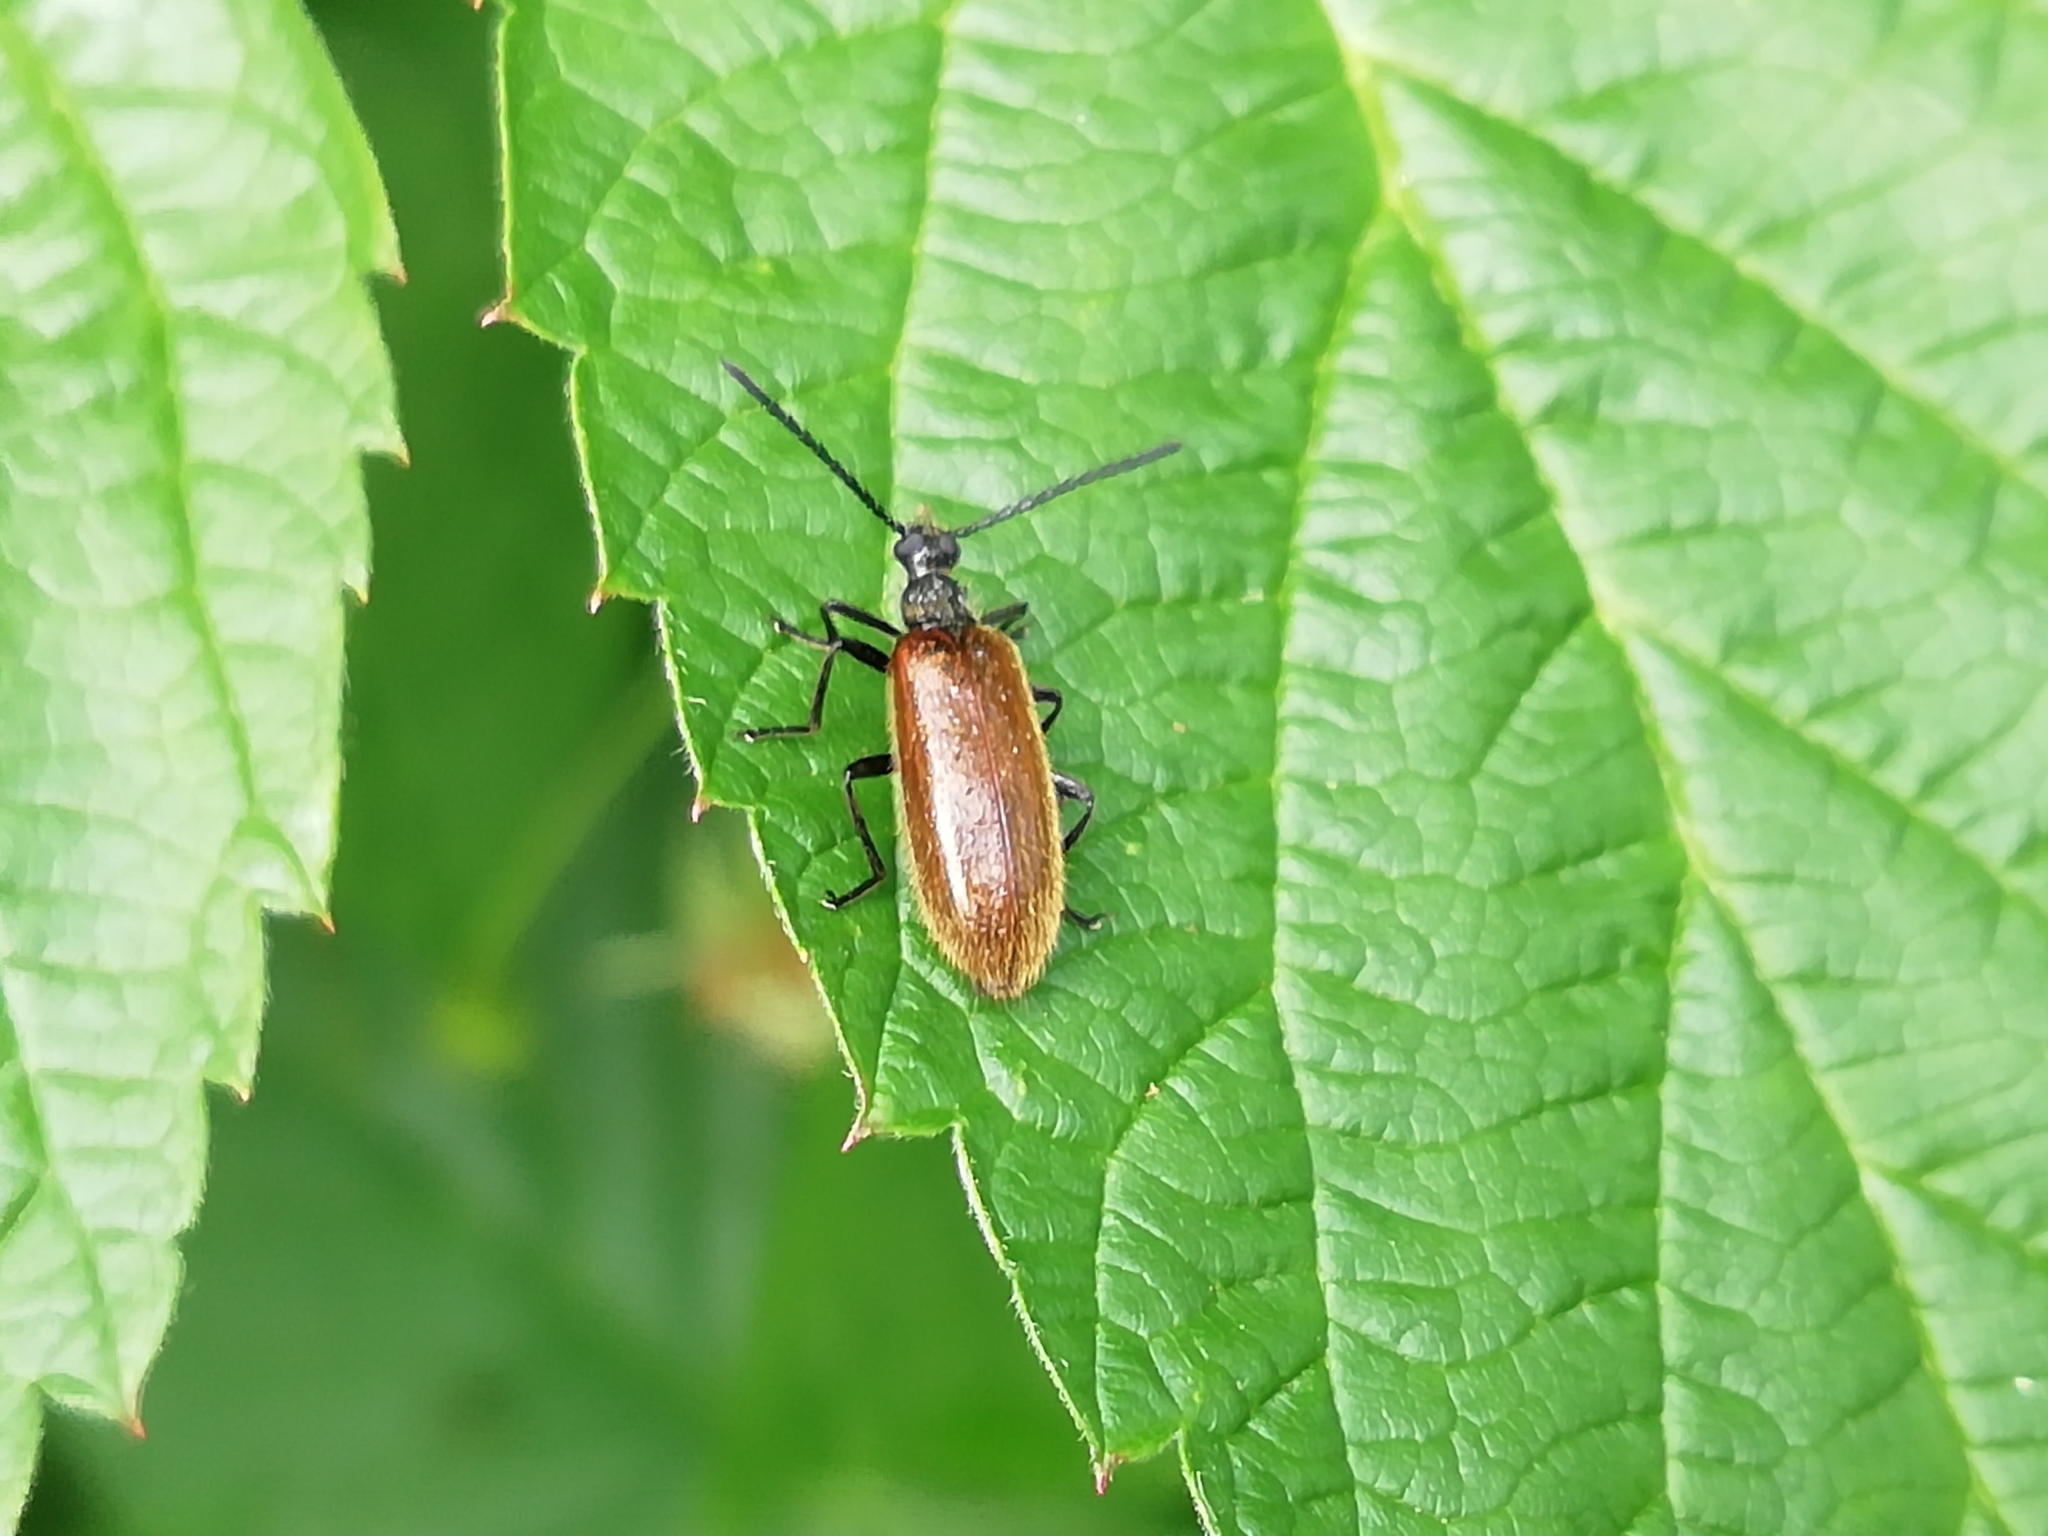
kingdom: Animalia
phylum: Arthropoda
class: Insecta
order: Coleoptera
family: Tenebrionidae
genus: Lagria
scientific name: Lagria hirta
